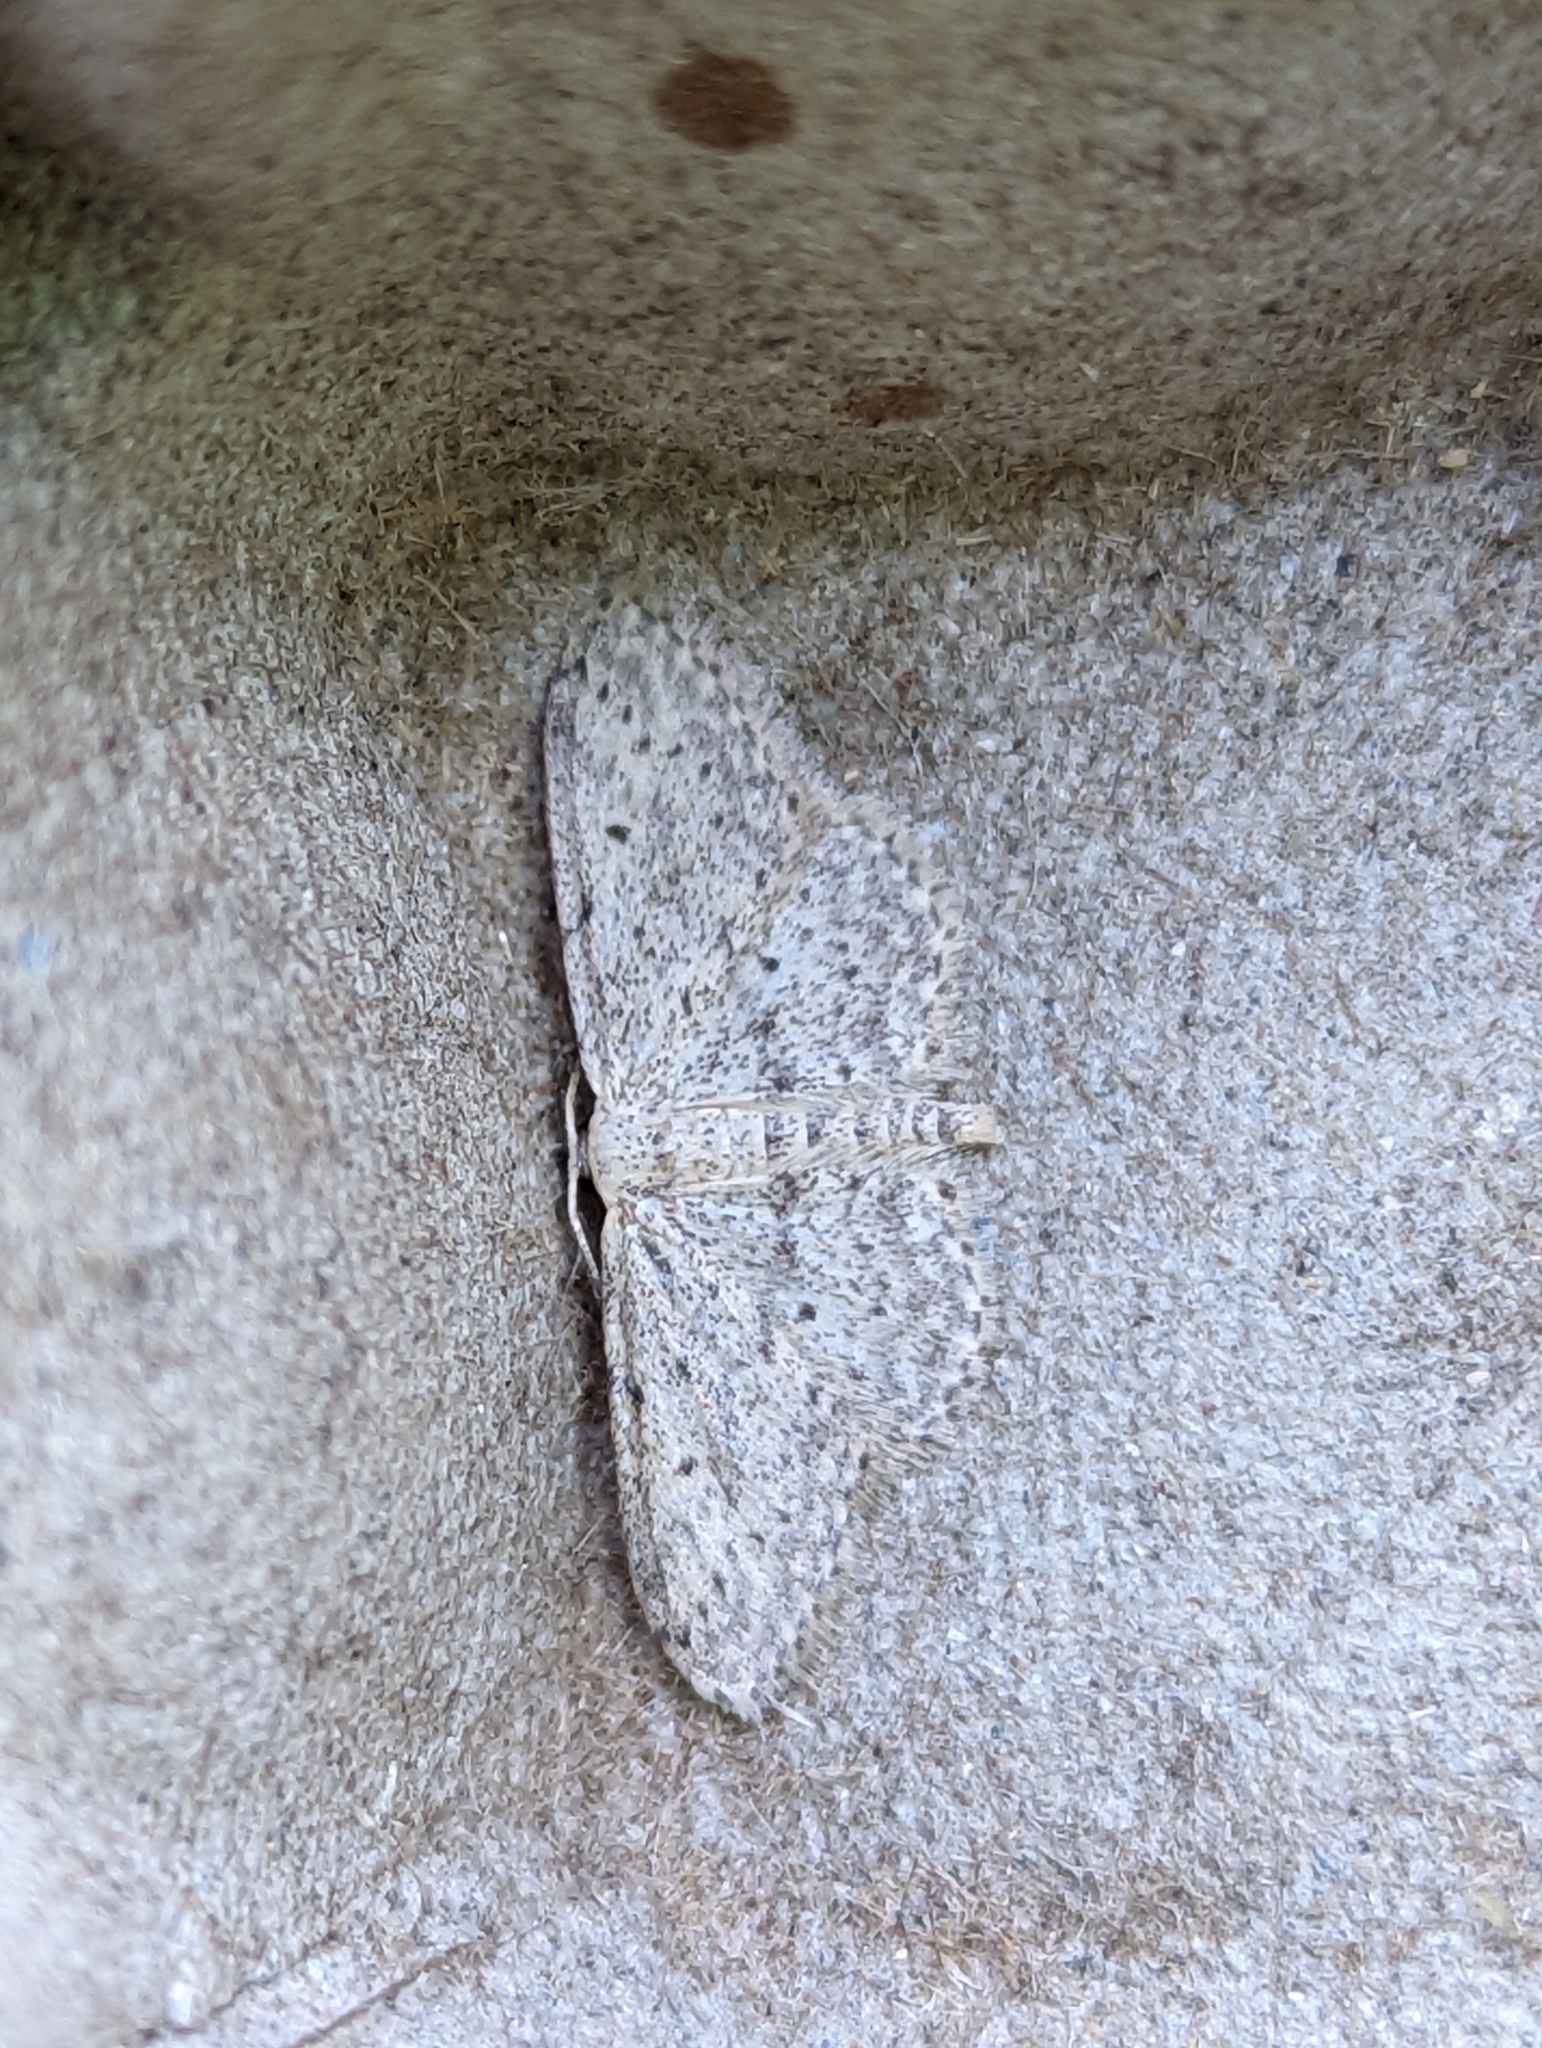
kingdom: Animalia
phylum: Arthropoda
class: Insecta
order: Lepidoptera
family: Geometridae
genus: Idaea
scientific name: Idaea seriata
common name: Small dusty wave
